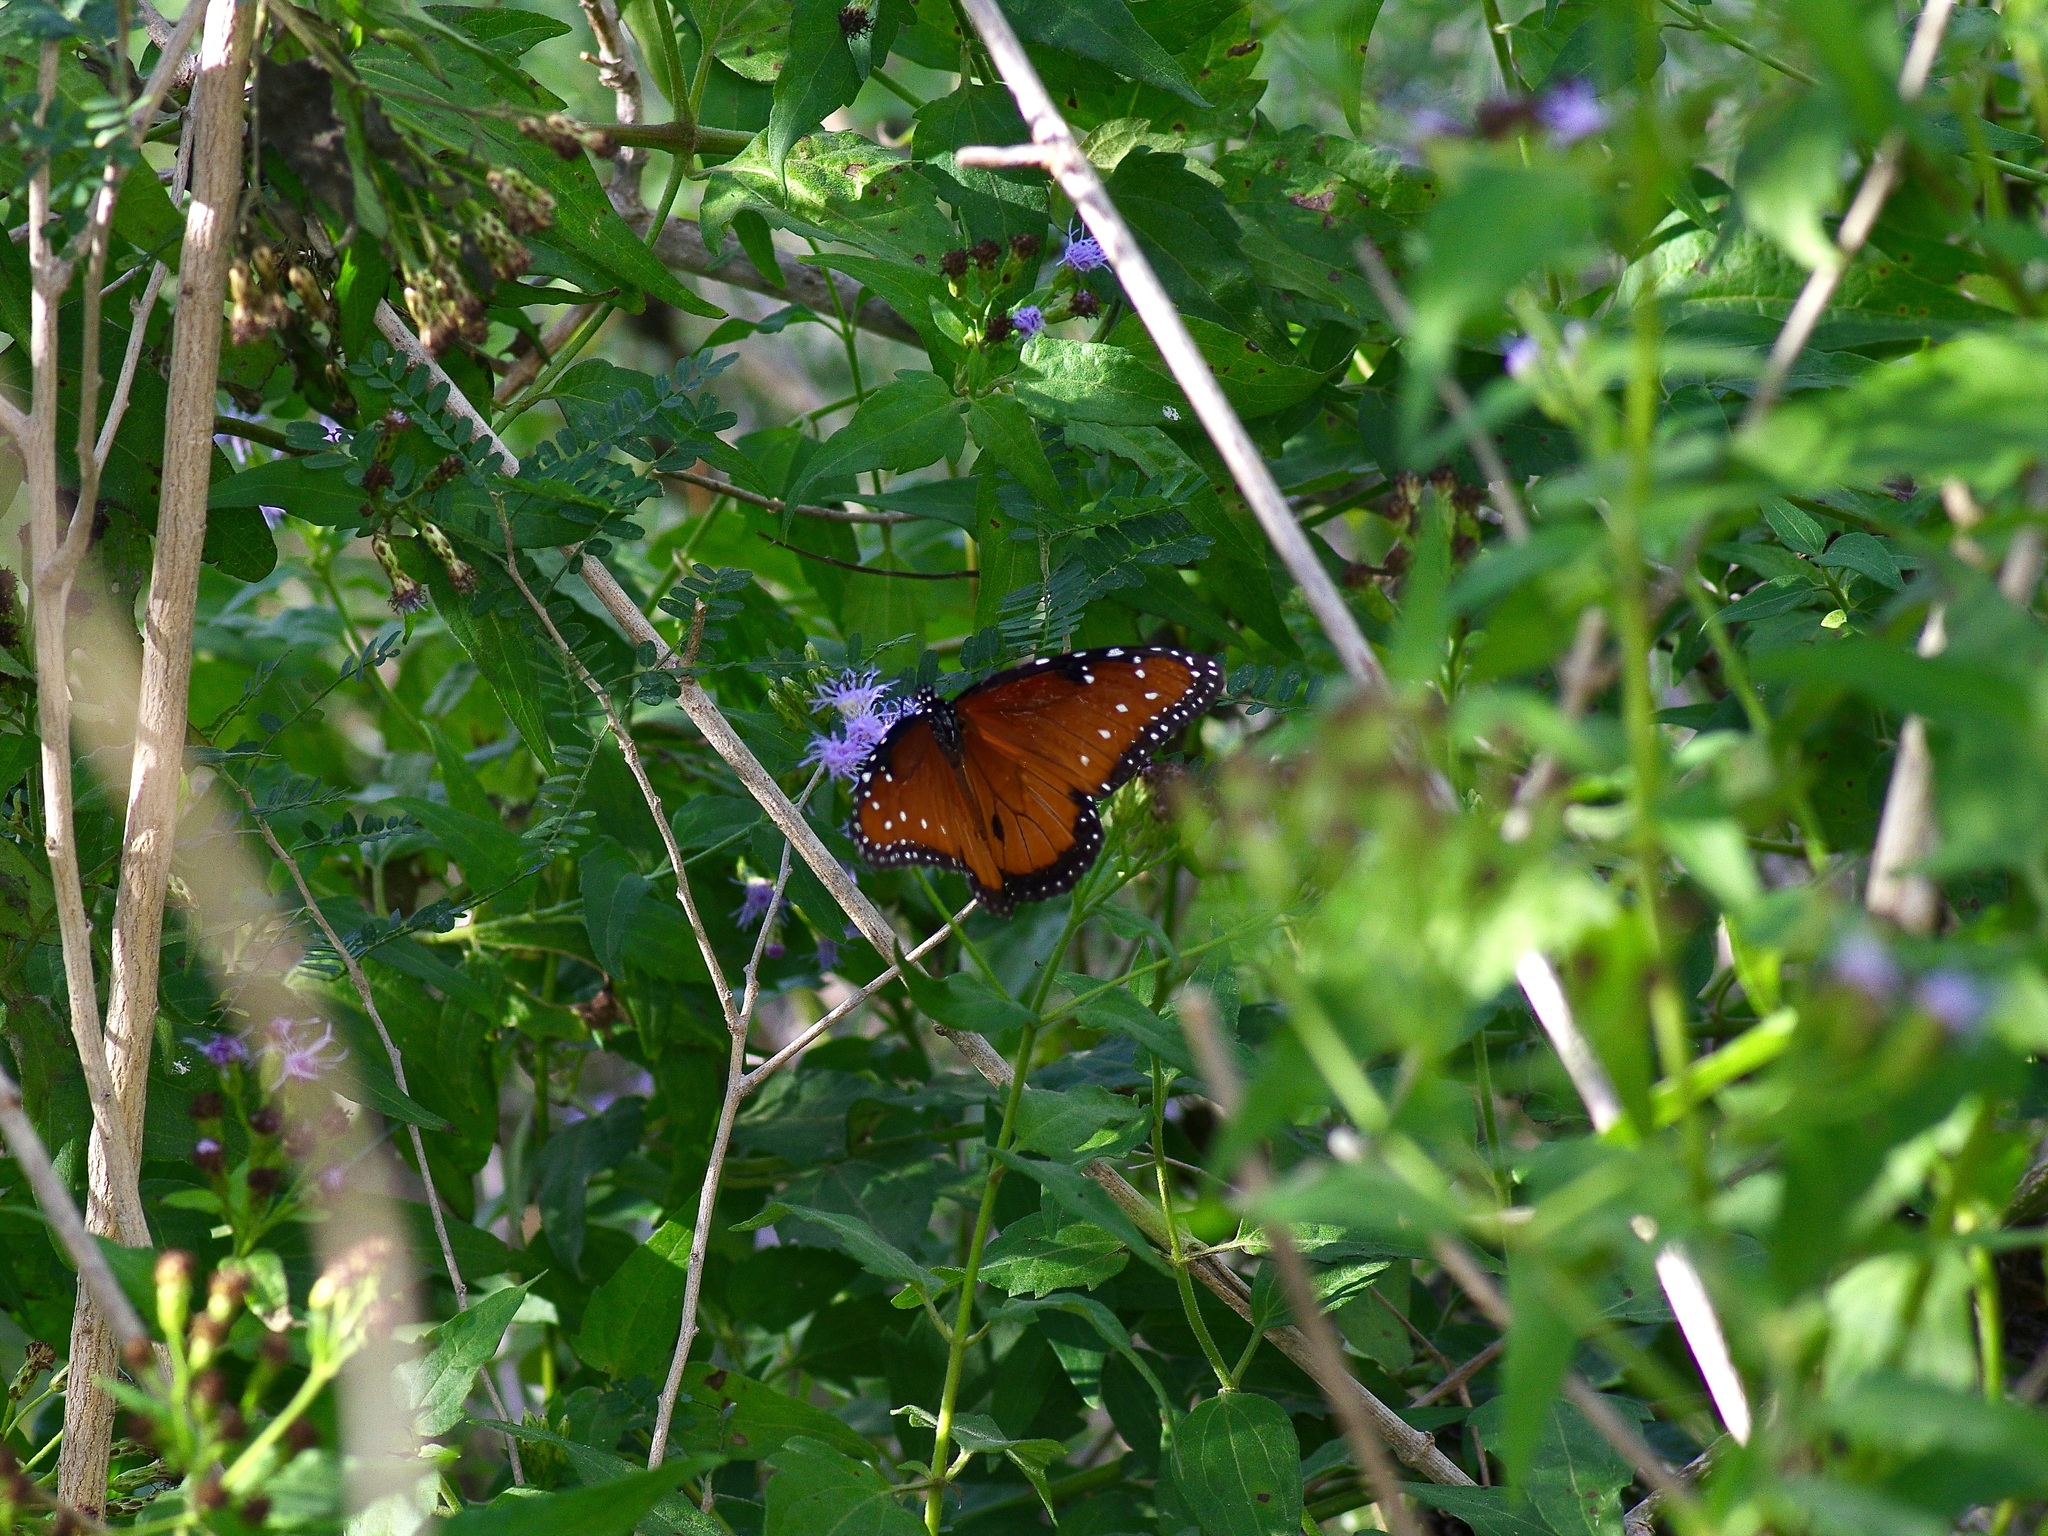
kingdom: Animalia
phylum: Arthropoda
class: Insecta
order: Lepidoptera
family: Nymphalidae
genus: Danaus
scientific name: Danaus gilippus
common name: Queen
